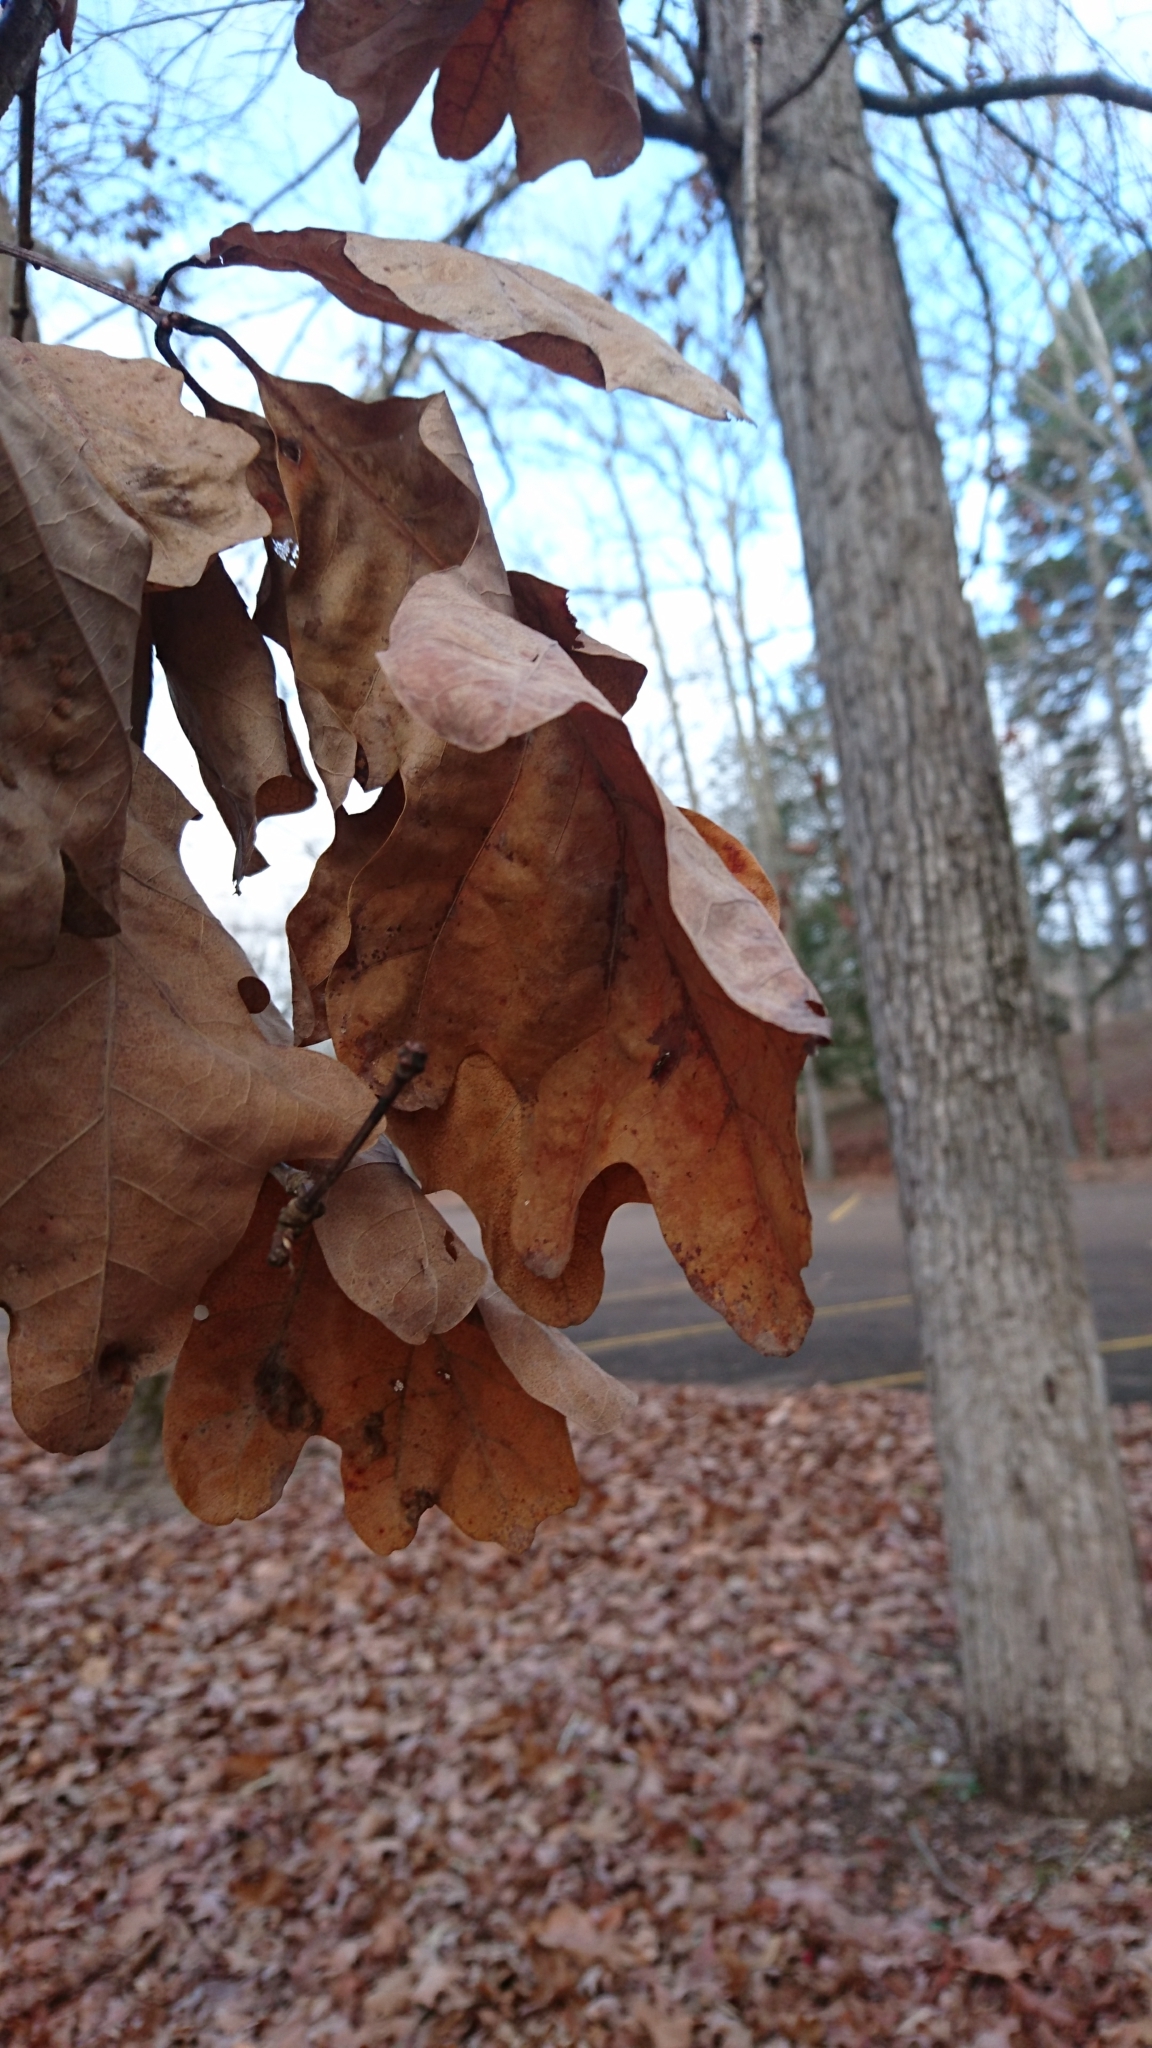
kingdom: Plantae
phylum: Tracheophyta
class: Magnoliopsida
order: Fagales
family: Fagaceae
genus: Quercus
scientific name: Quercus alba
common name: White oak
